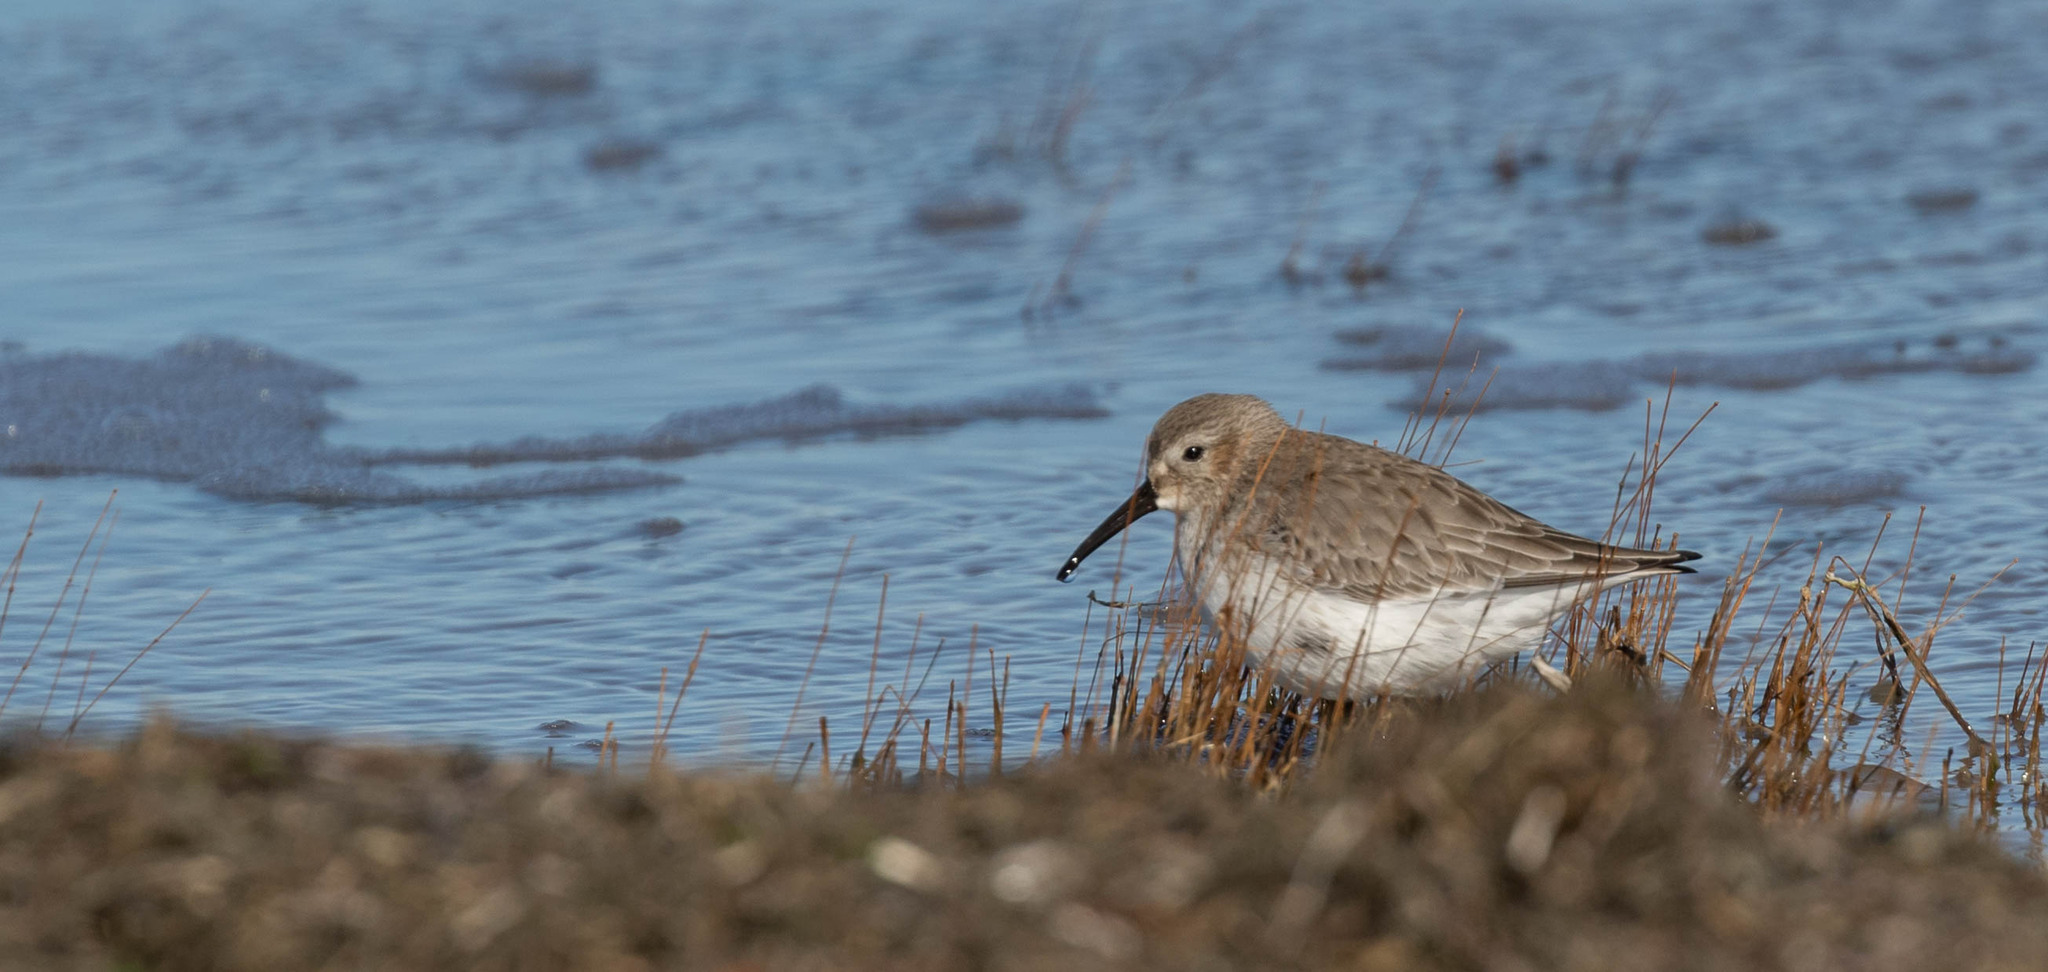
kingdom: Animalia
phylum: Chordata
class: Aves
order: Charadriiformes
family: Scolopacidae
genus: Calidris
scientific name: Calidris alpina
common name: Dunlin
